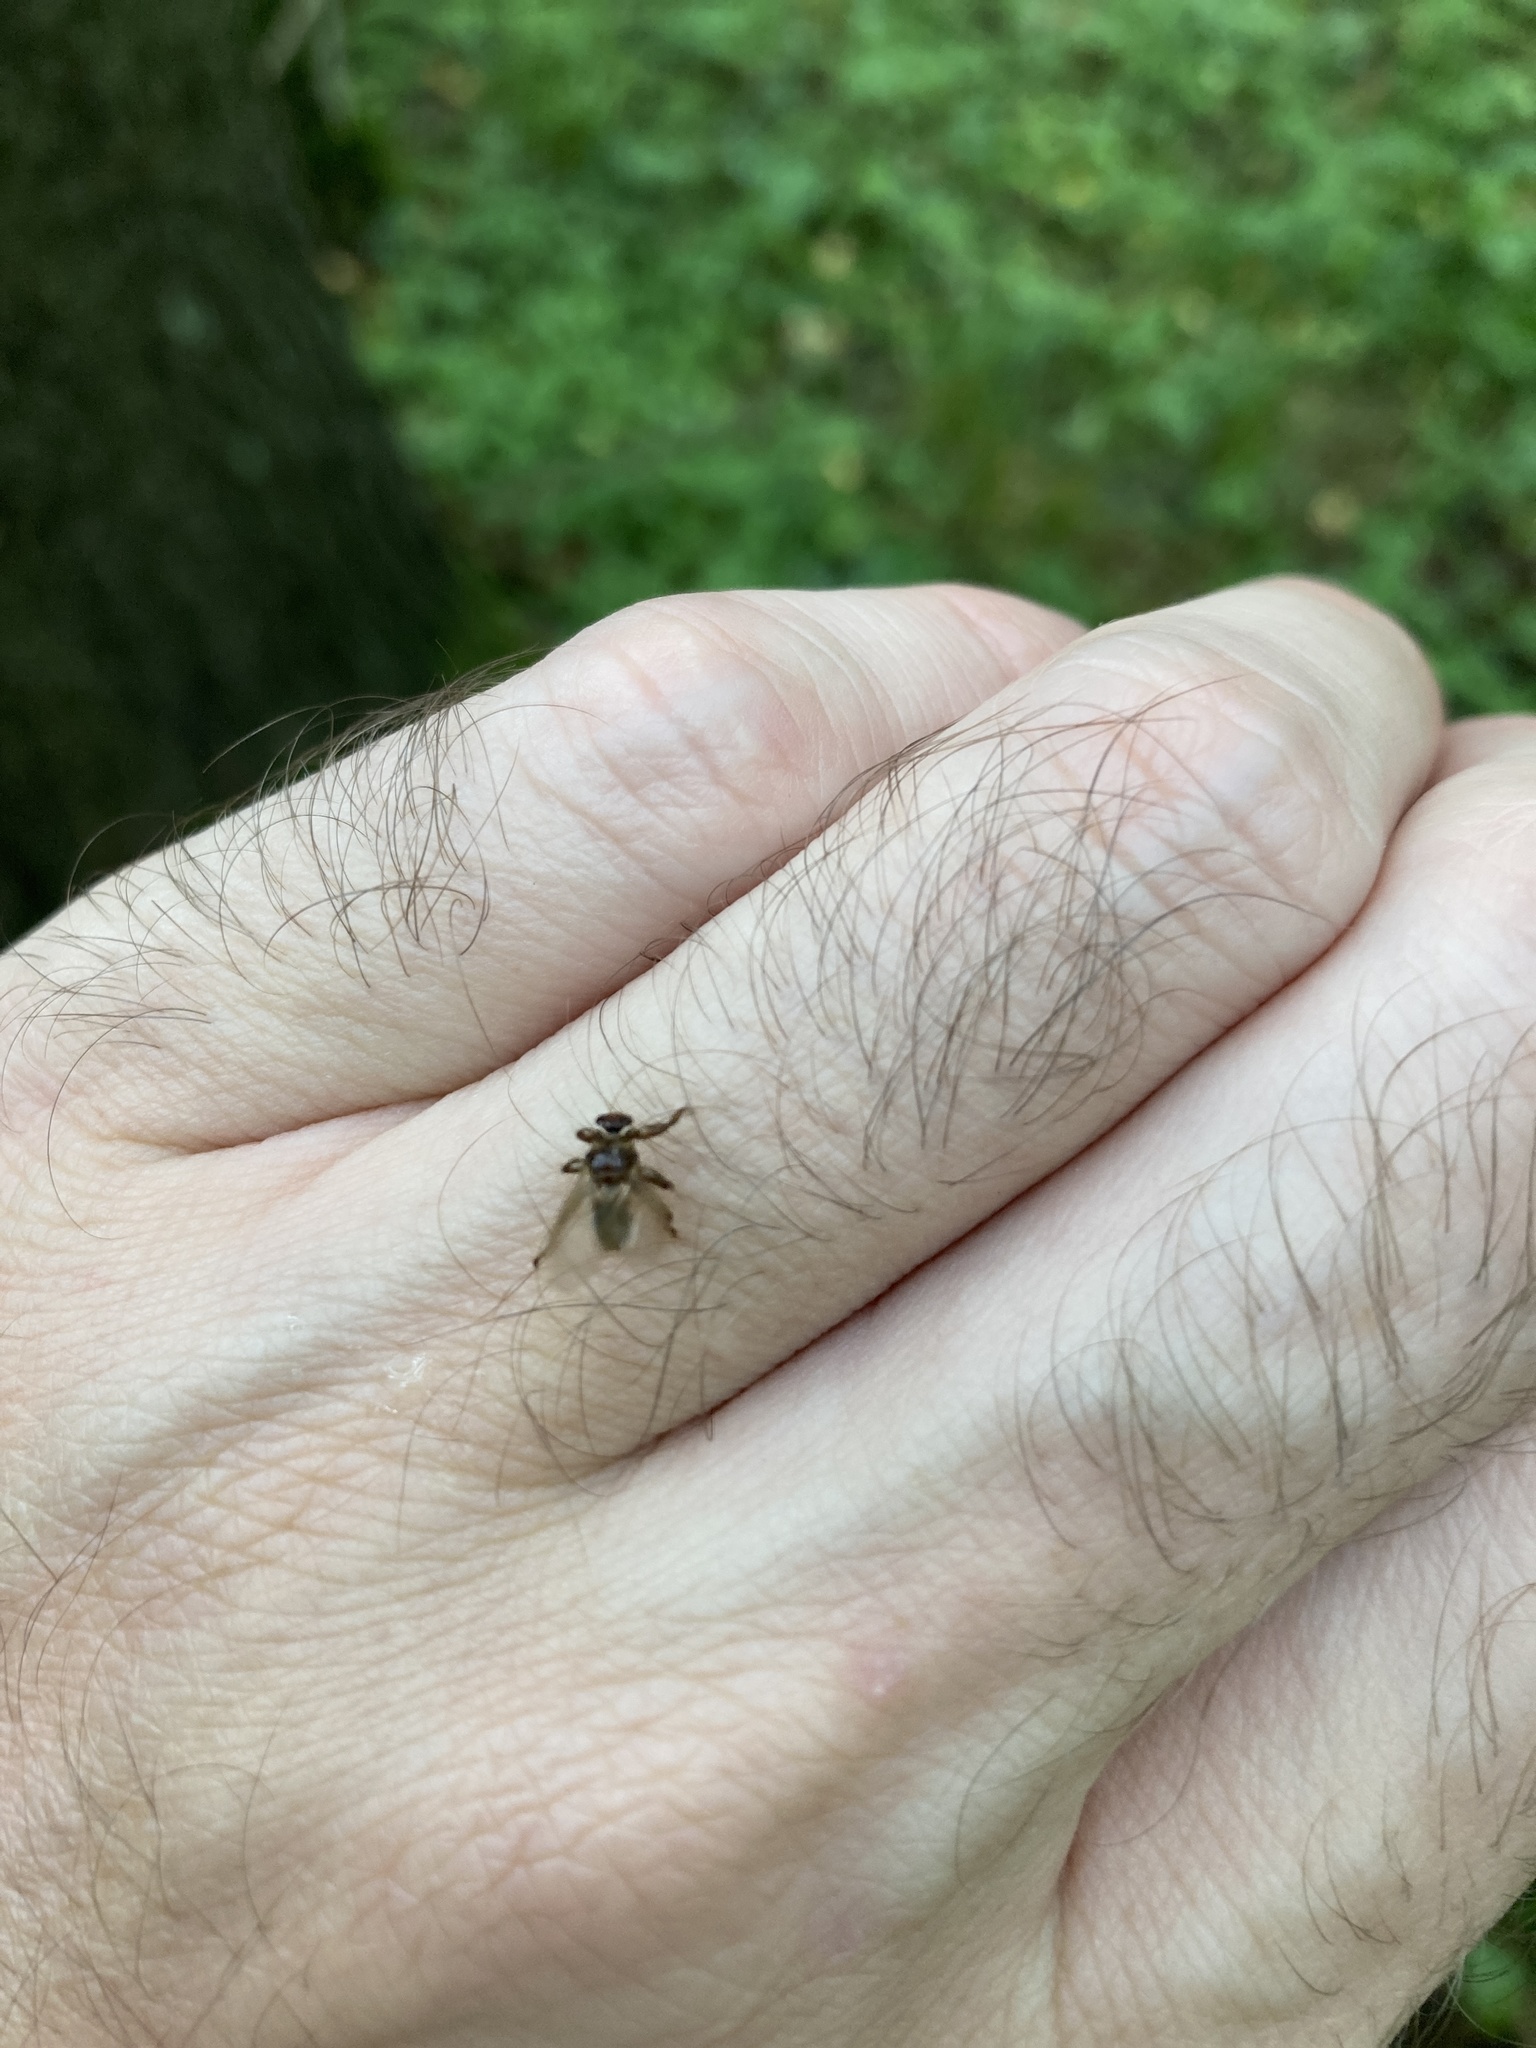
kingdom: Animalia
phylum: Arthropoda
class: Insecta
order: Diptera
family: Hippoboscidae
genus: Lipoptena
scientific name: Lipoptena cervi
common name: Deer ked
